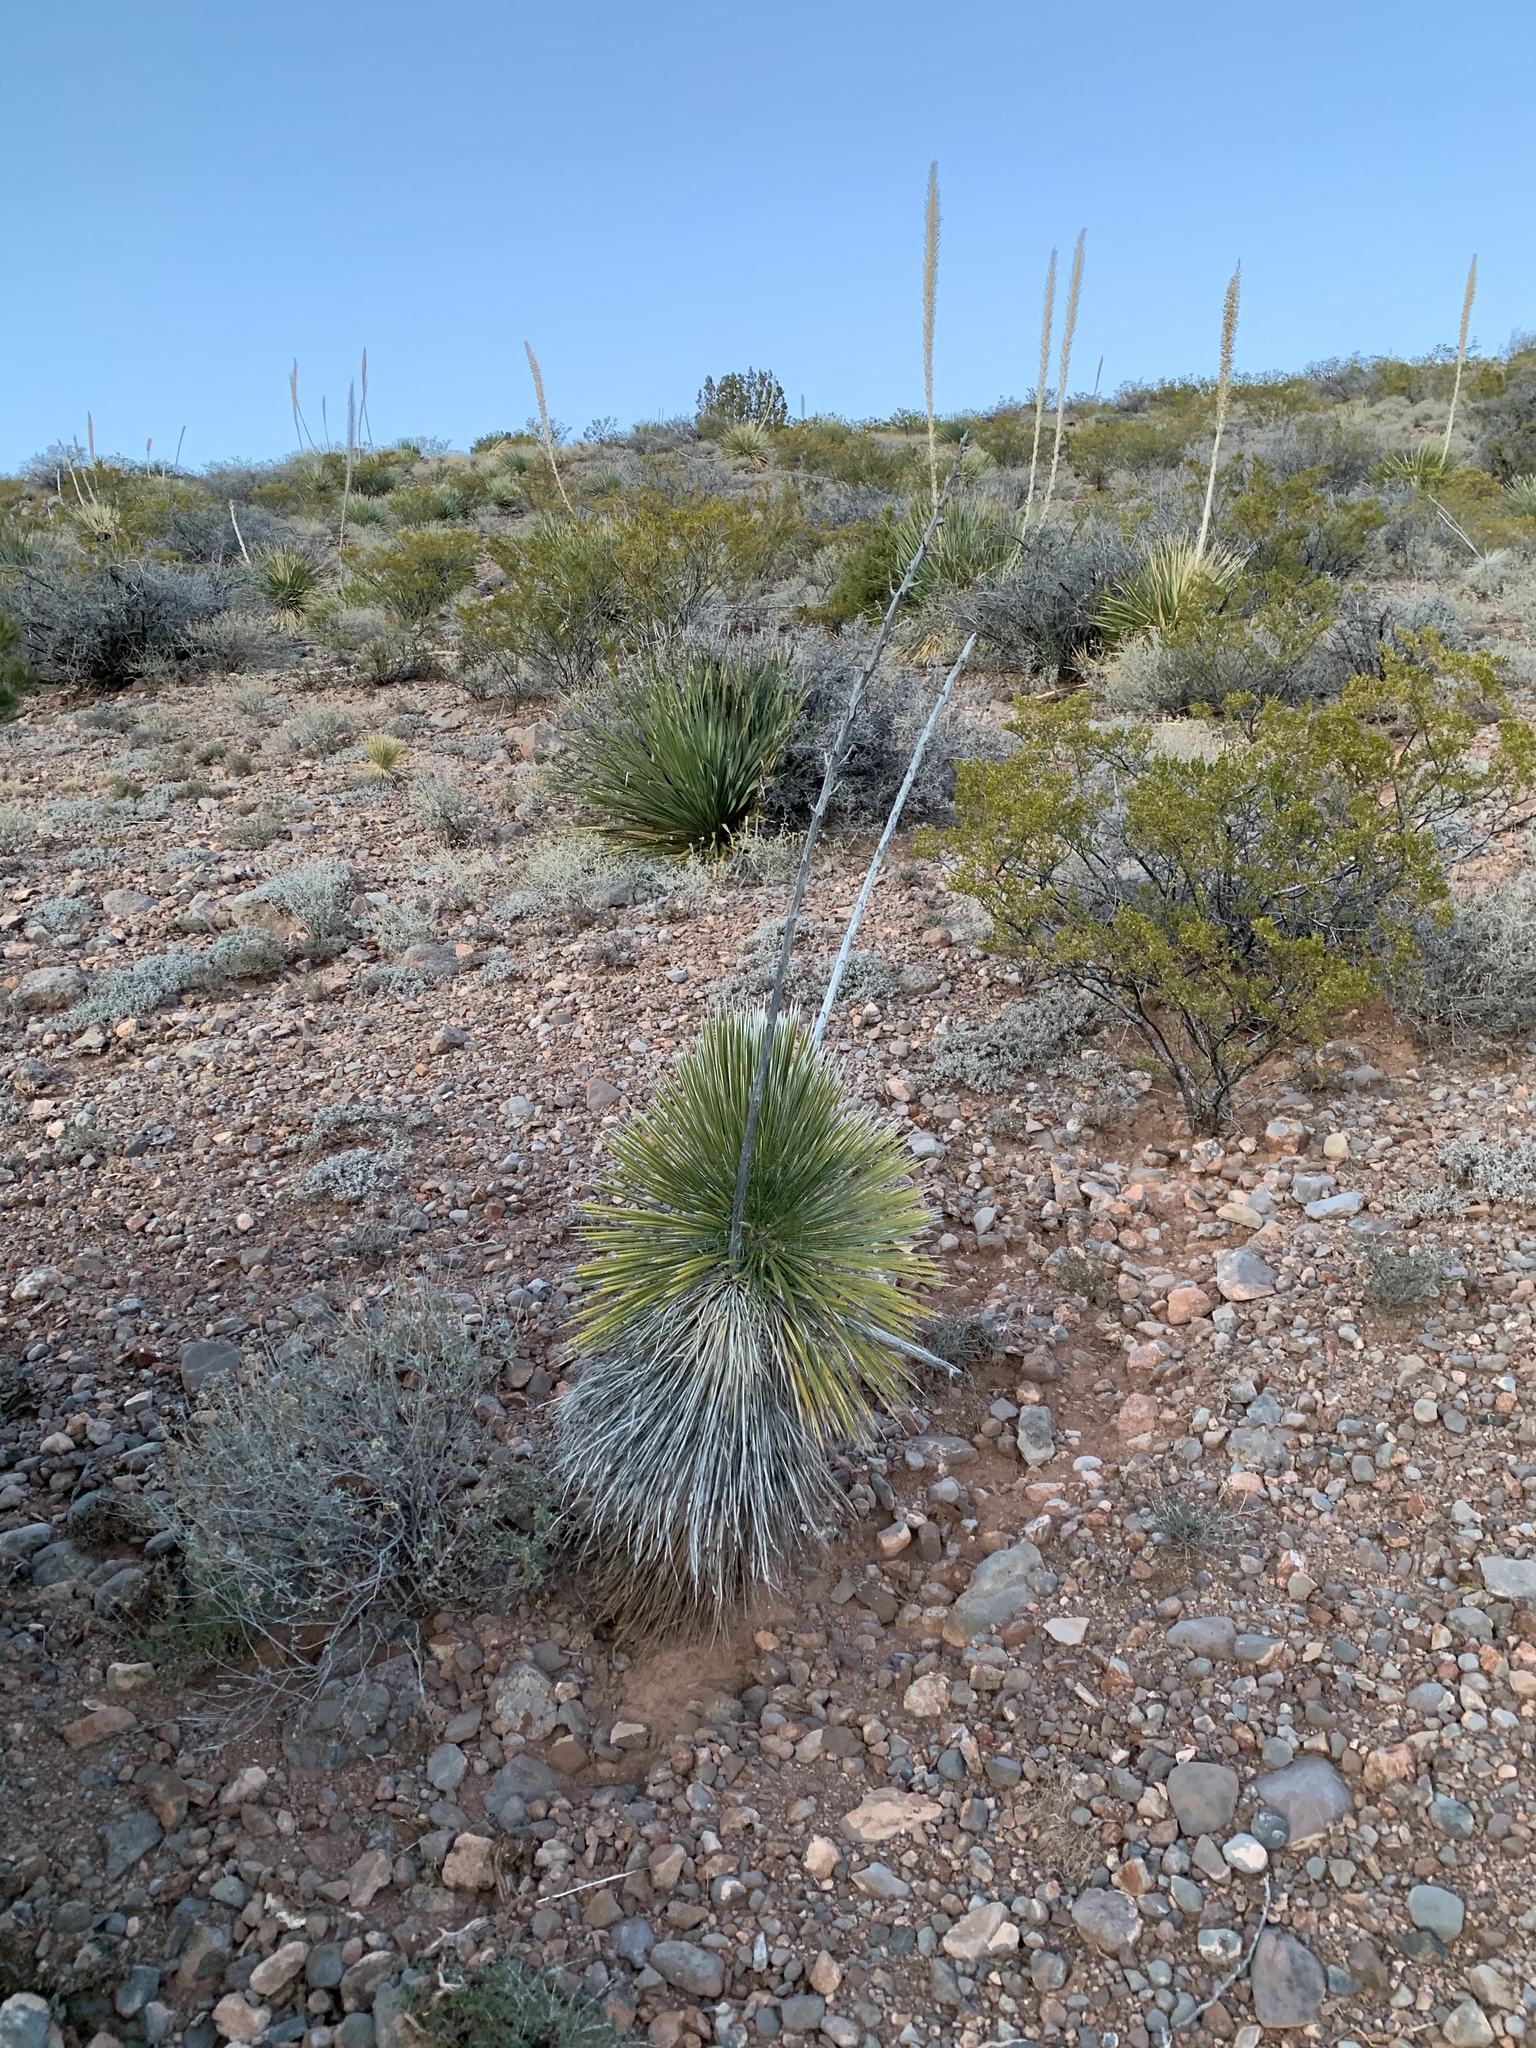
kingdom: Plantae
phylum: Tracheophyta
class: Liliopsida
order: Asparagales
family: Asparagaceae
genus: Yucca
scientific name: Yucca elata
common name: Palmella
